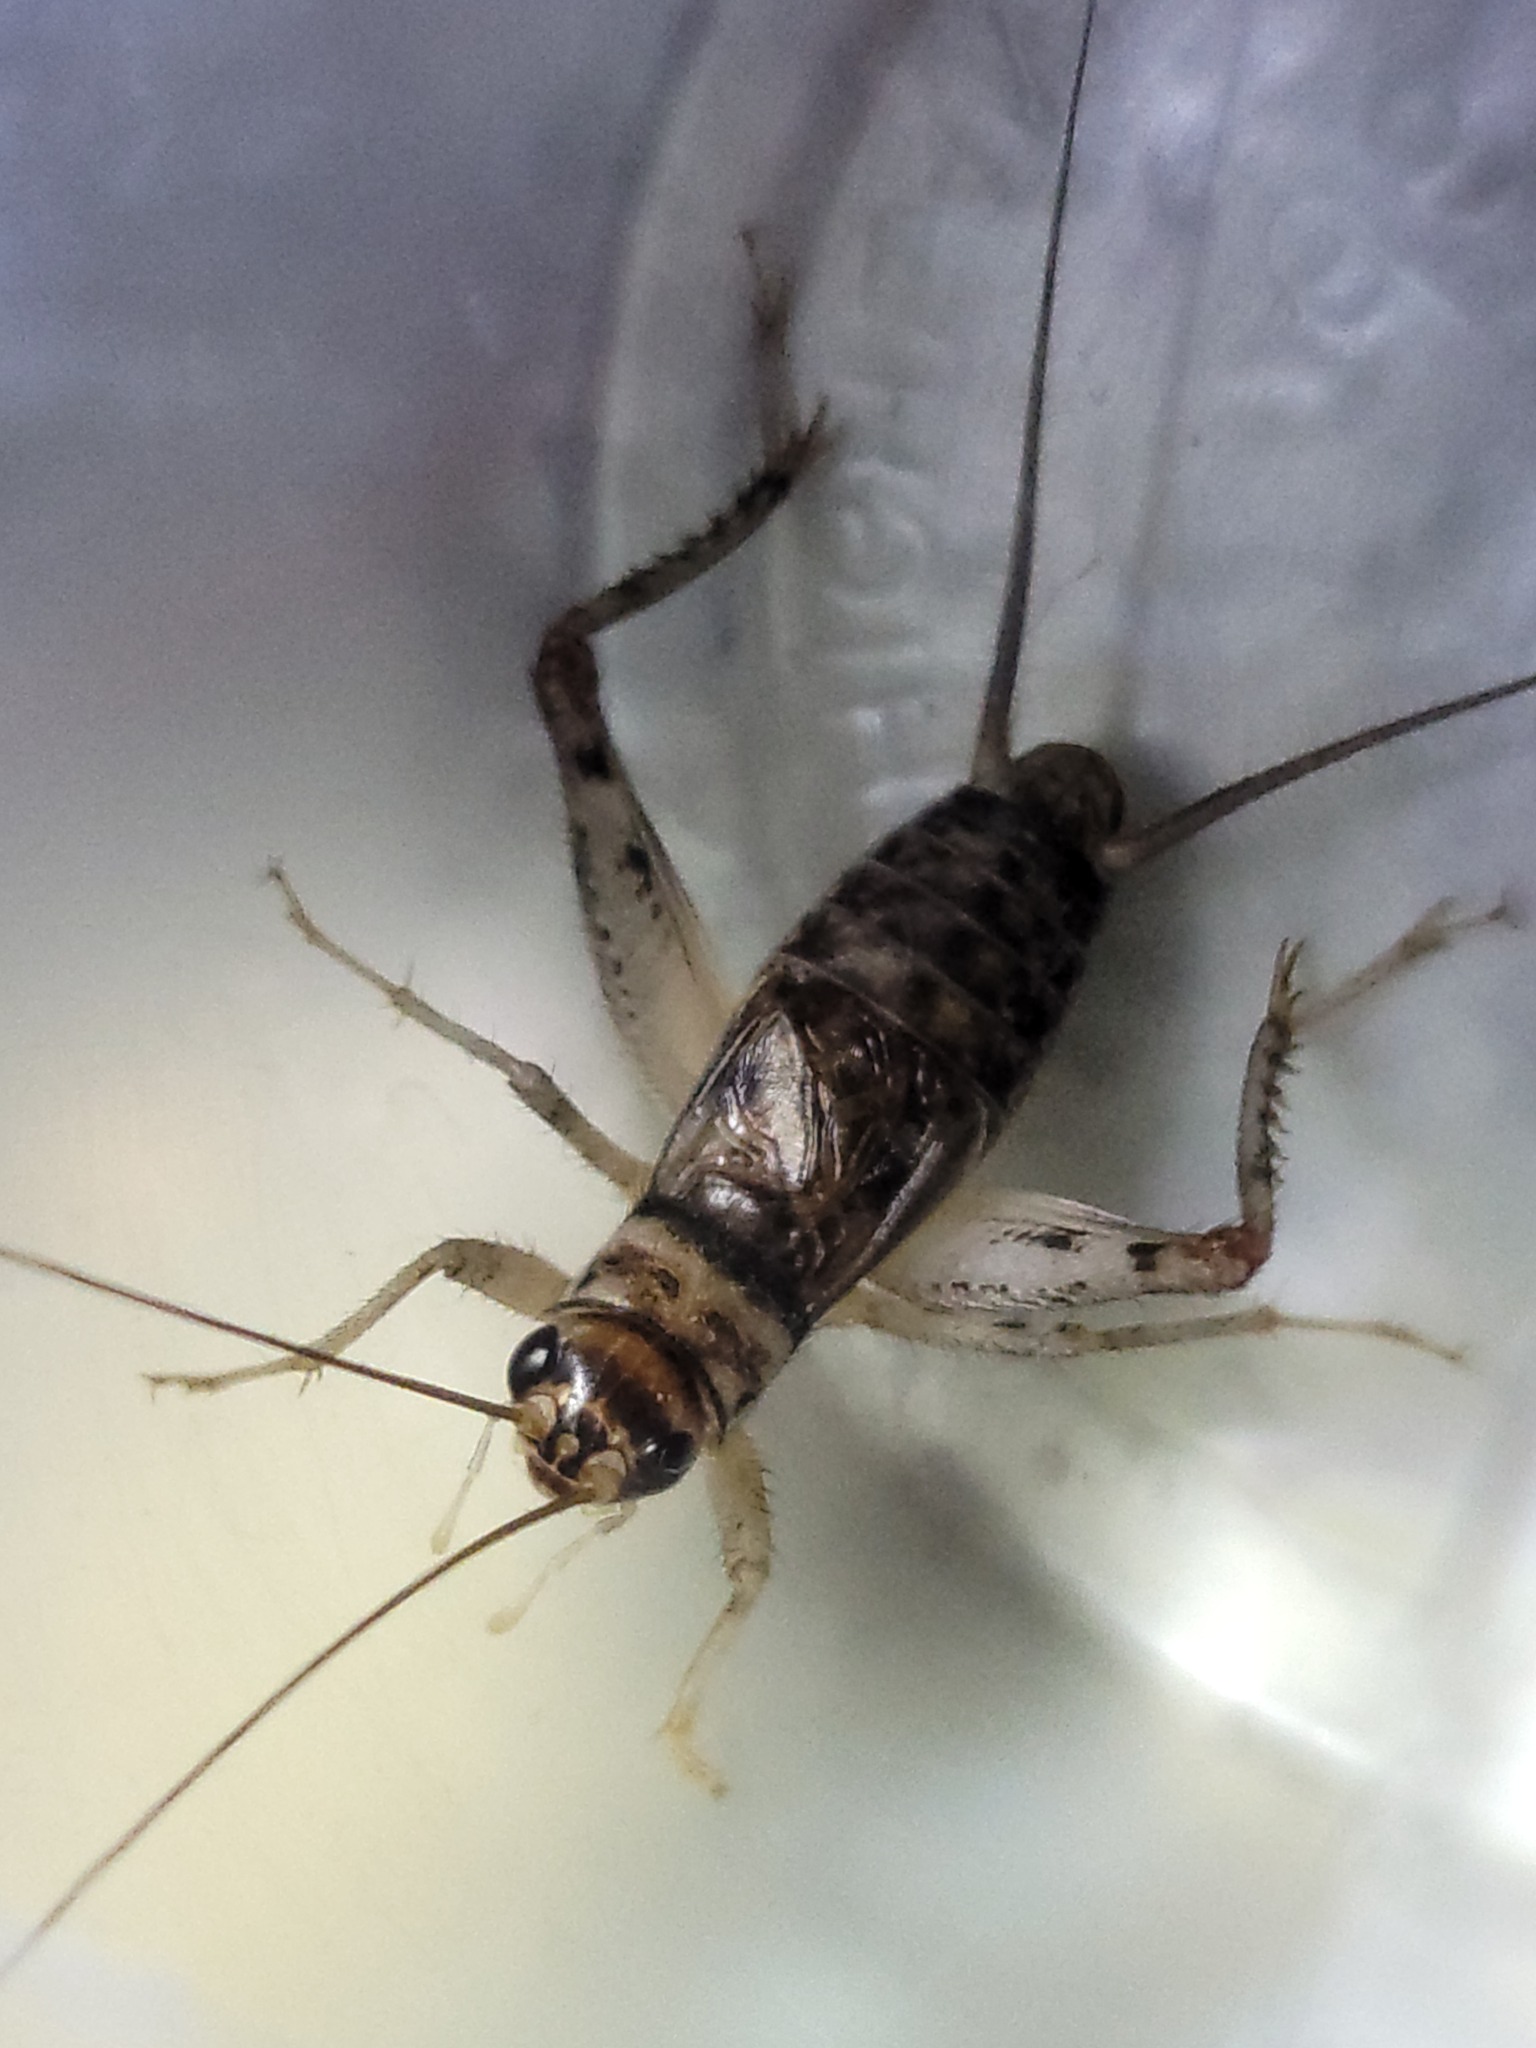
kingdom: Animalia
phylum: Arthropoda
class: Insecta
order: Orthoptera
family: Gryllidae
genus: Gryllodes
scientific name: Gryllodes sigillatus
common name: Tropical house cricket
